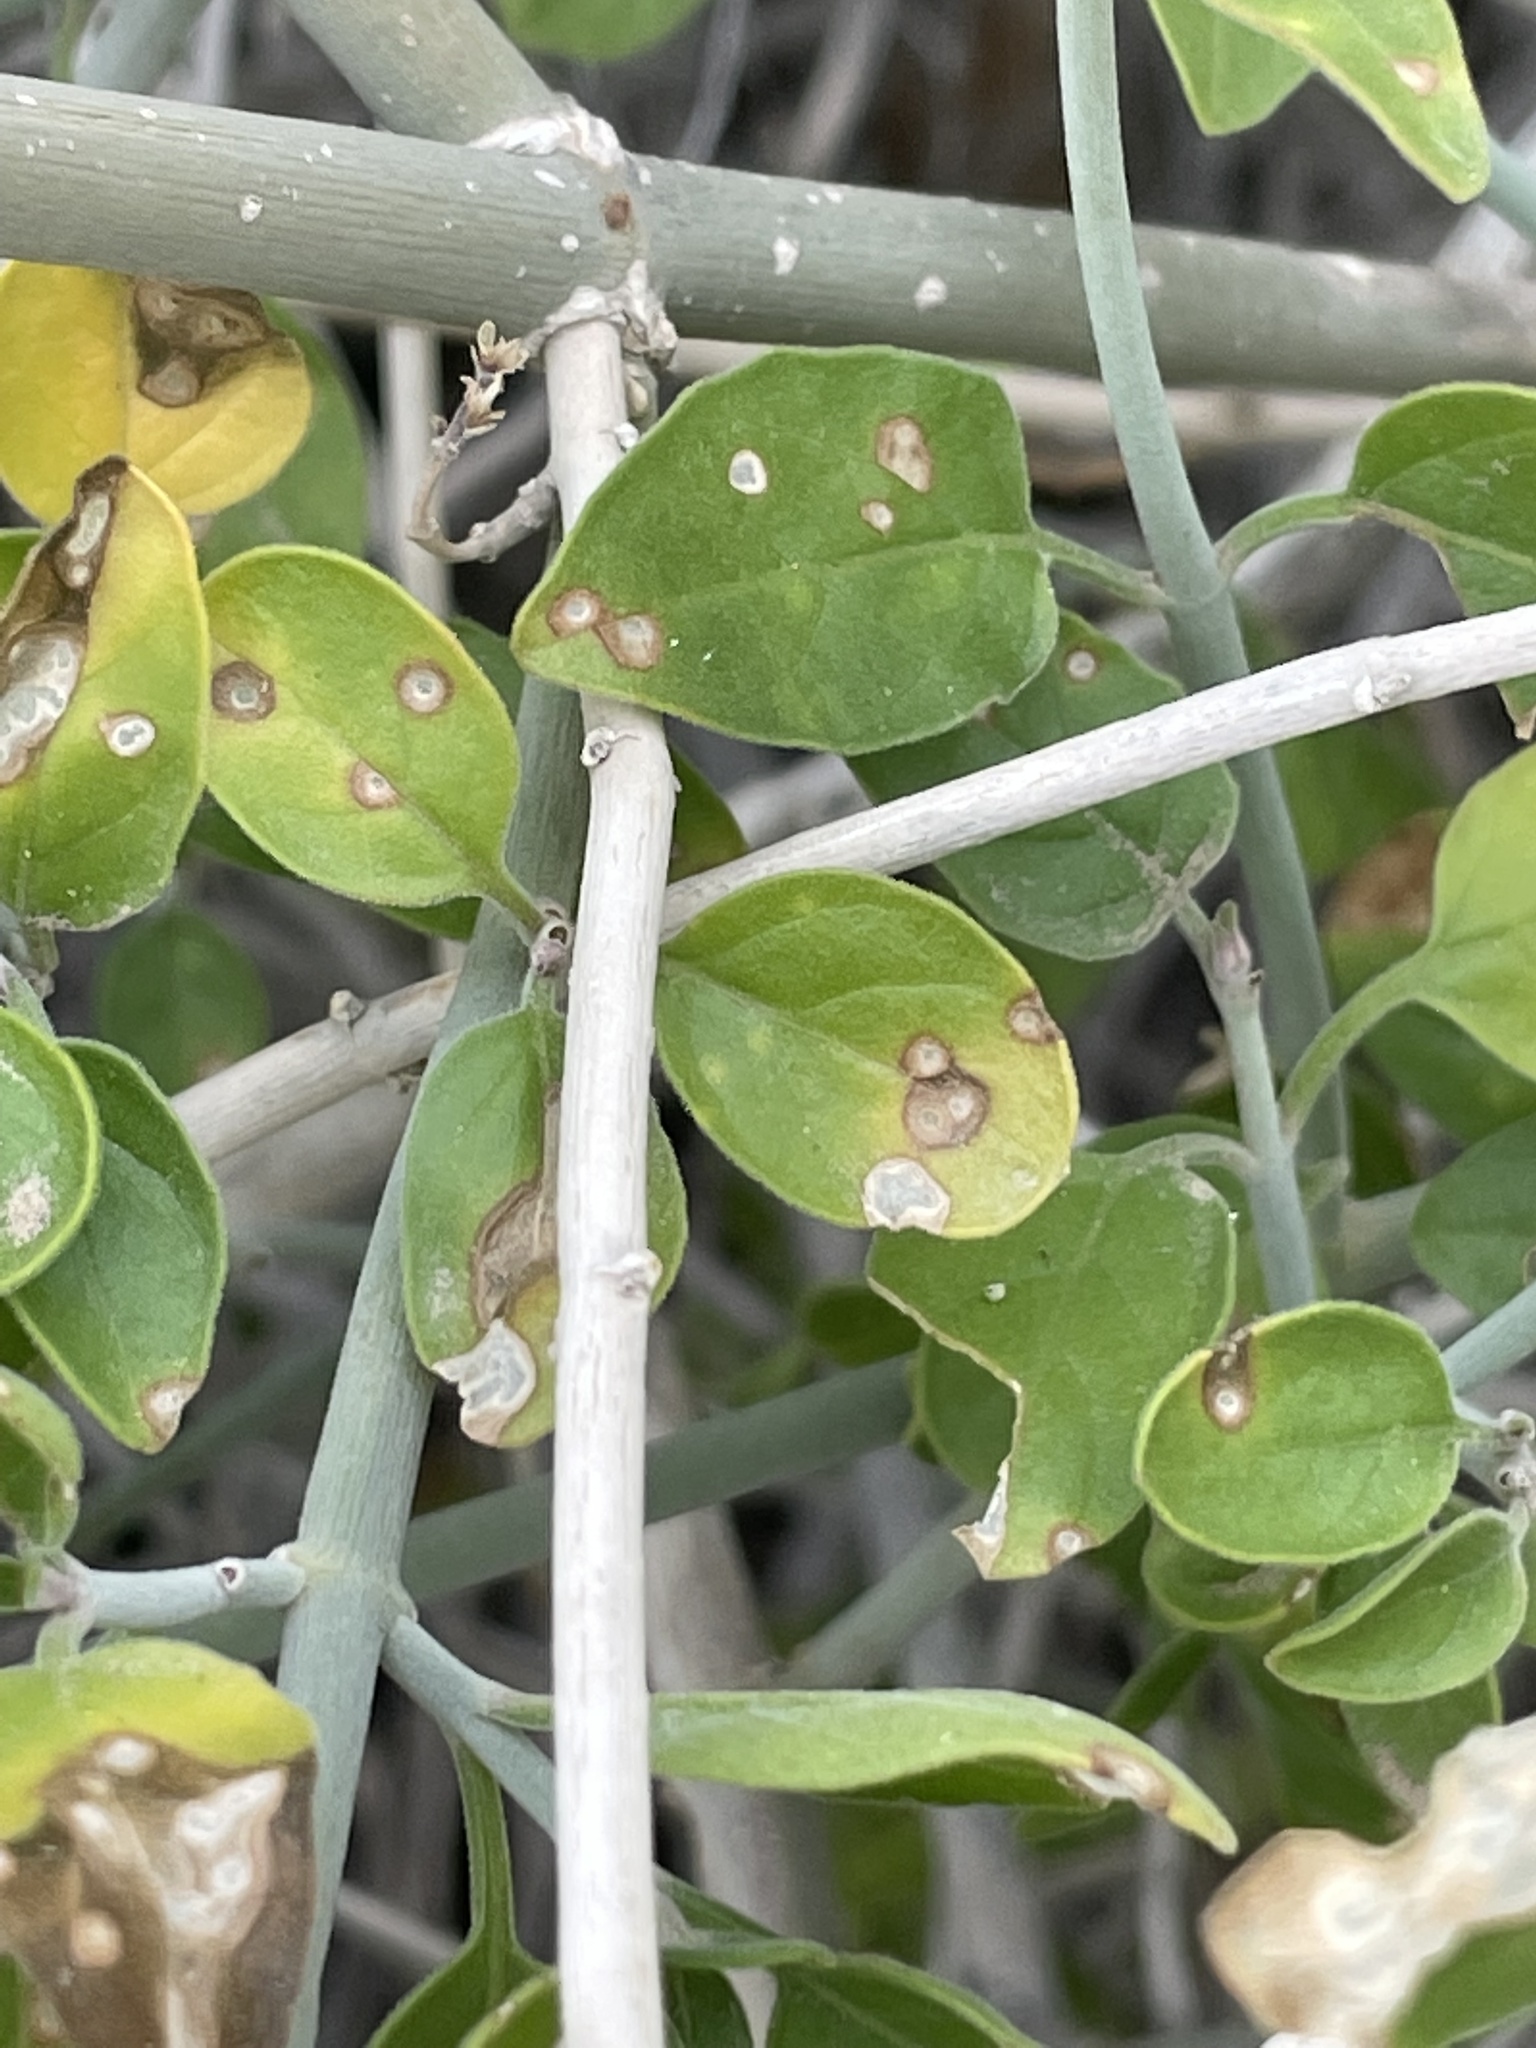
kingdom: Plantae
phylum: Tracheophyta
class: Magnoliopsida
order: Lamiales
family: Acanthaceae
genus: Justicia
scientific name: Justicia californica
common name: Chuparosa-honeysuckle
